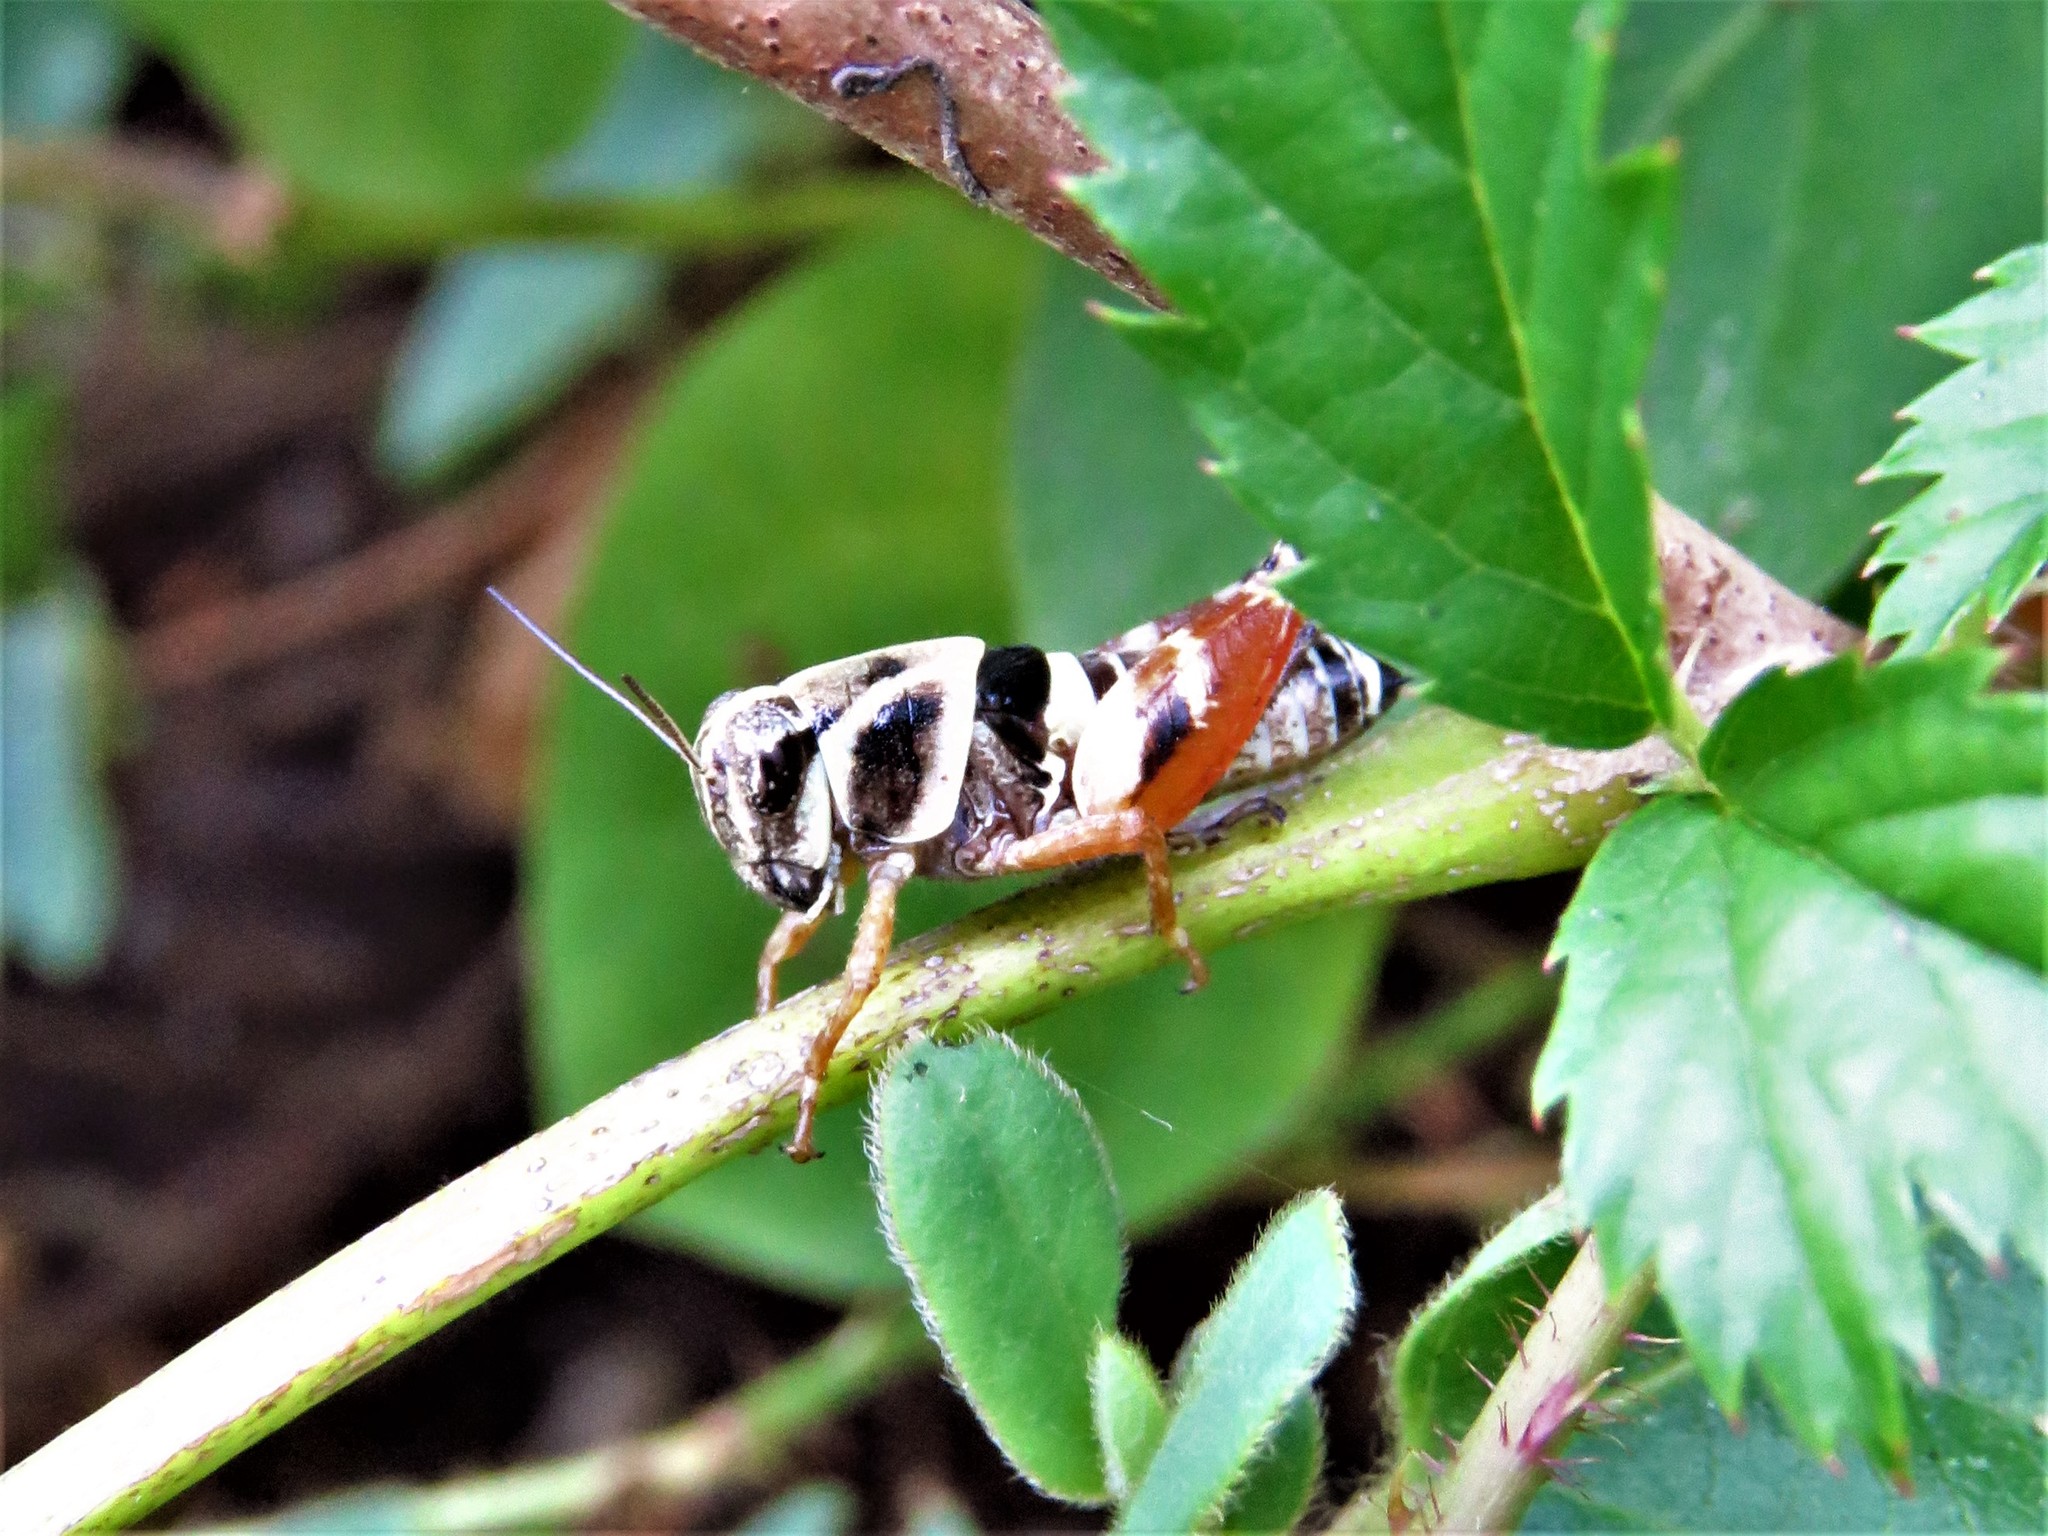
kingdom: Animalia
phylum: Arthropoda
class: Insecta
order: Orthoptera
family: Acrididae
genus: Aidemona
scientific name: Aidemona azteca
